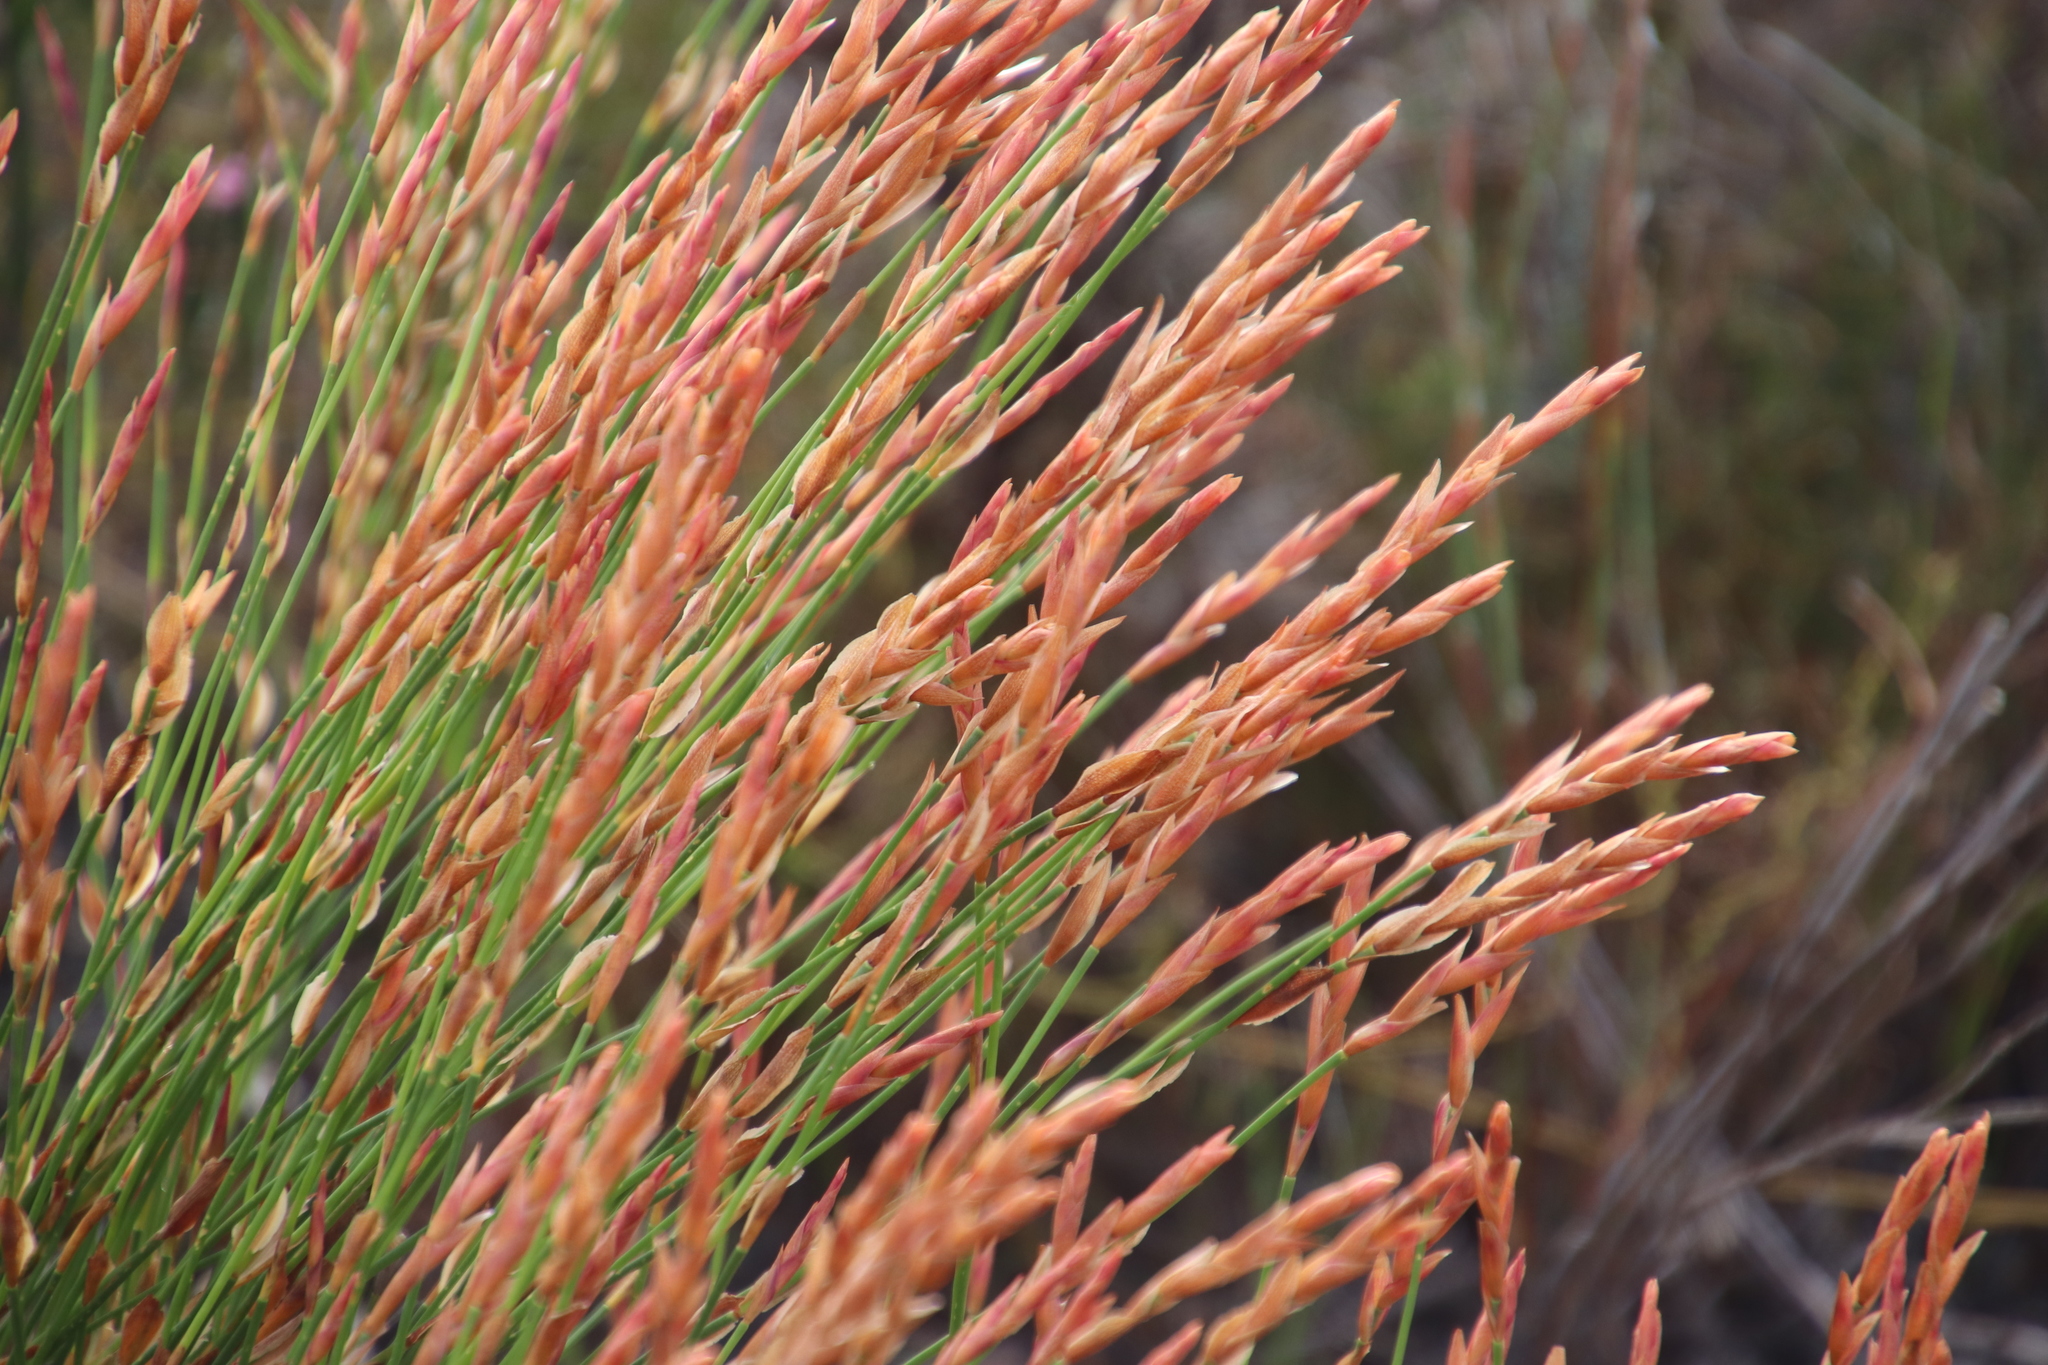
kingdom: Plantae
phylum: Tracheophyta
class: Liliopsida
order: Poales
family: Restionaceae
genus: Elegia
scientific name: Elegia stipularis
